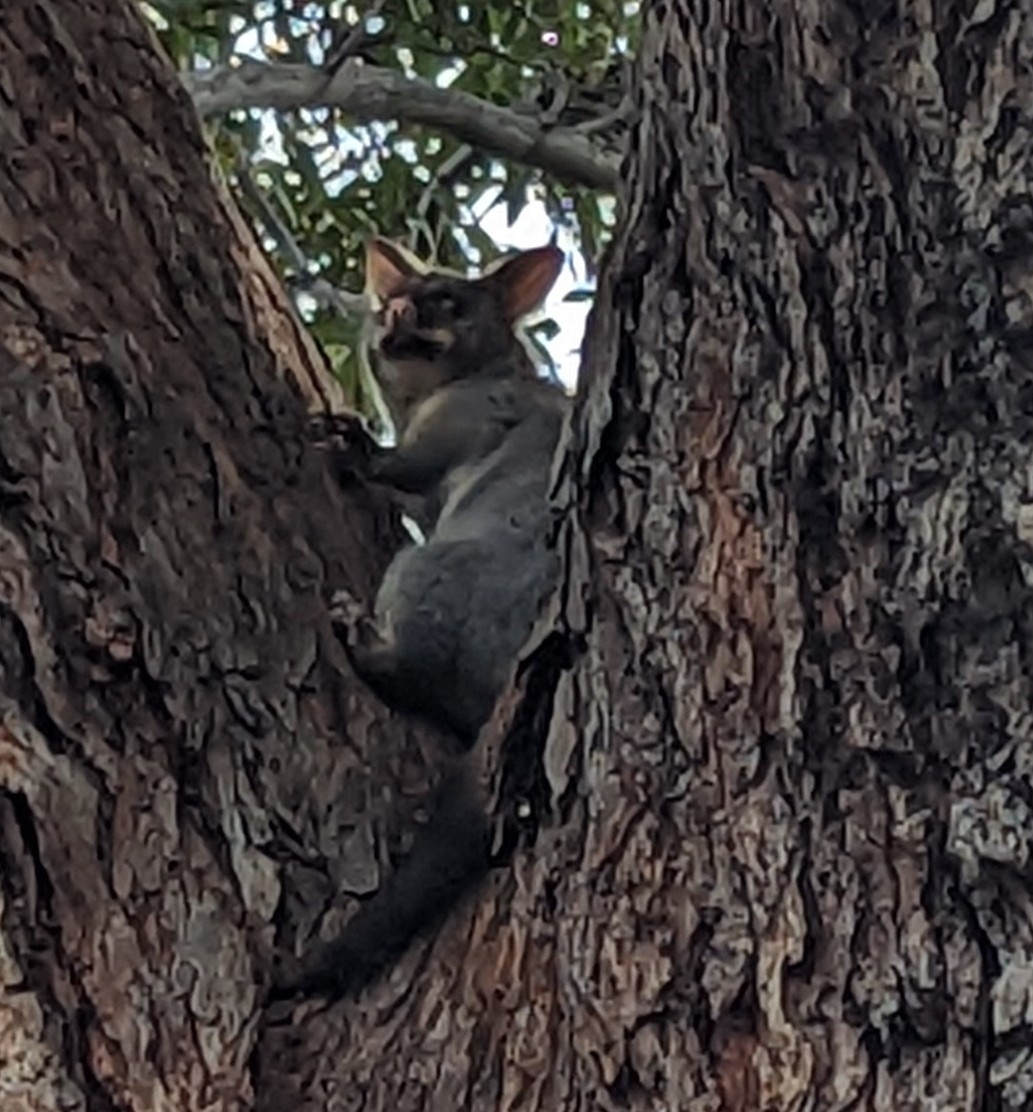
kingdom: Animalia
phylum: Chordata
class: Mammalia
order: Diprotodontia
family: Phalangeridae
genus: Trichosurus
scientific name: Trichosurus vulpecula
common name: Common brushtail
